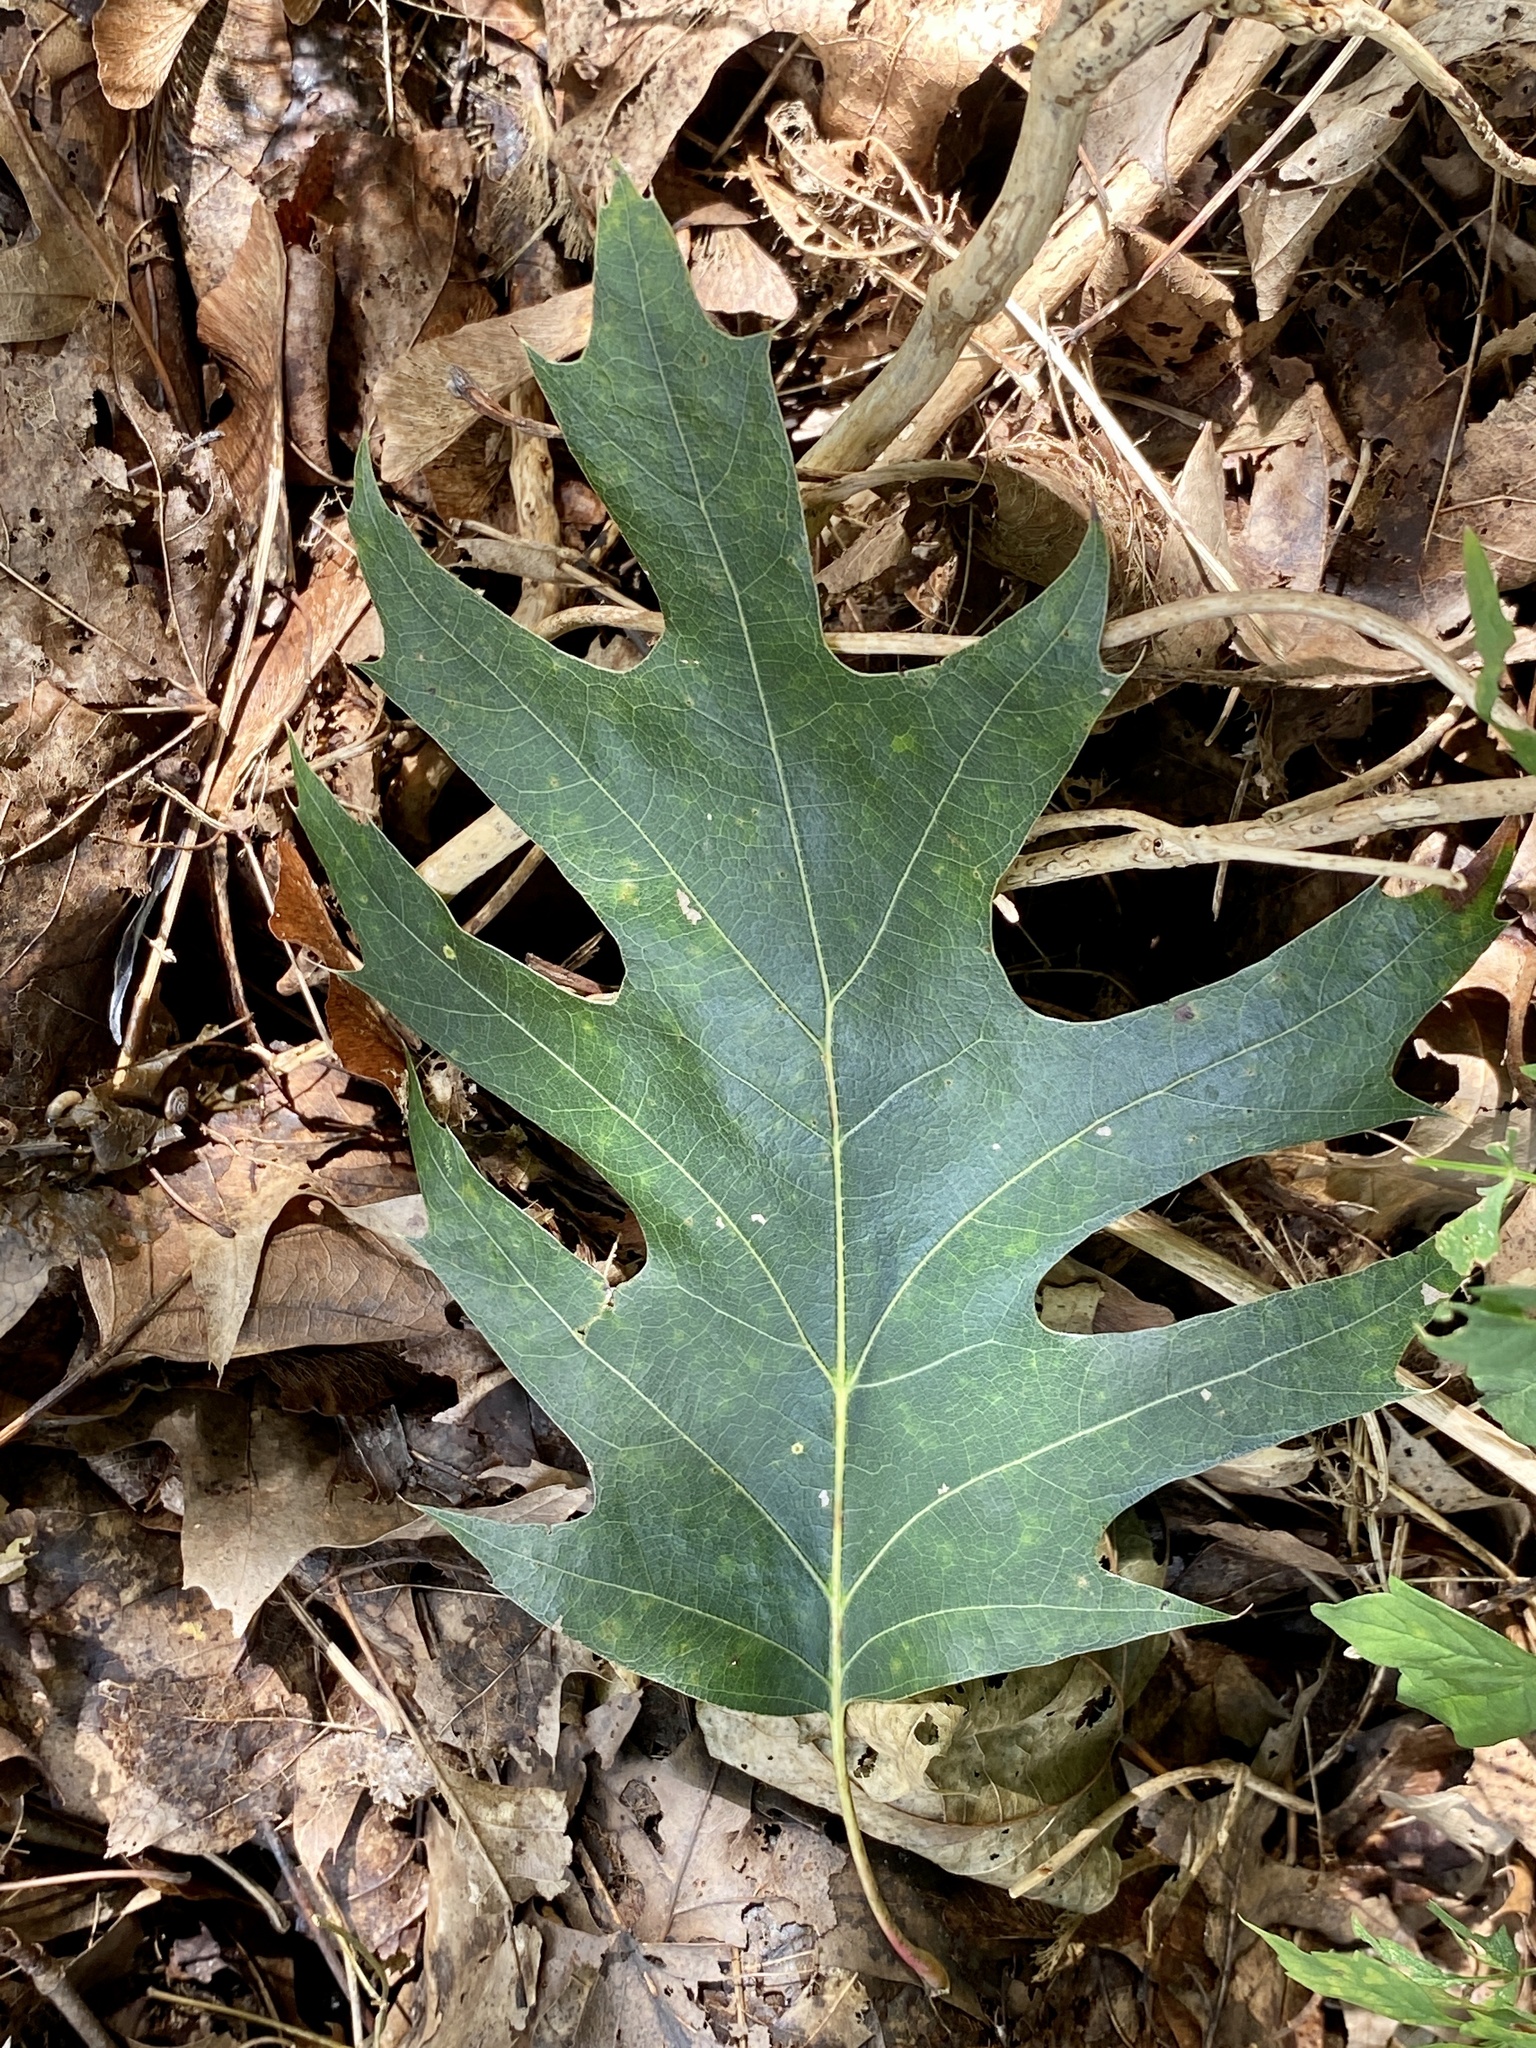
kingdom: Plantae
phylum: Tracheophyta
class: Magnoliopsida
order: Fagales
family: Fagaceae
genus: Quercus
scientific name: Quercus rubra
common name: Red oak
